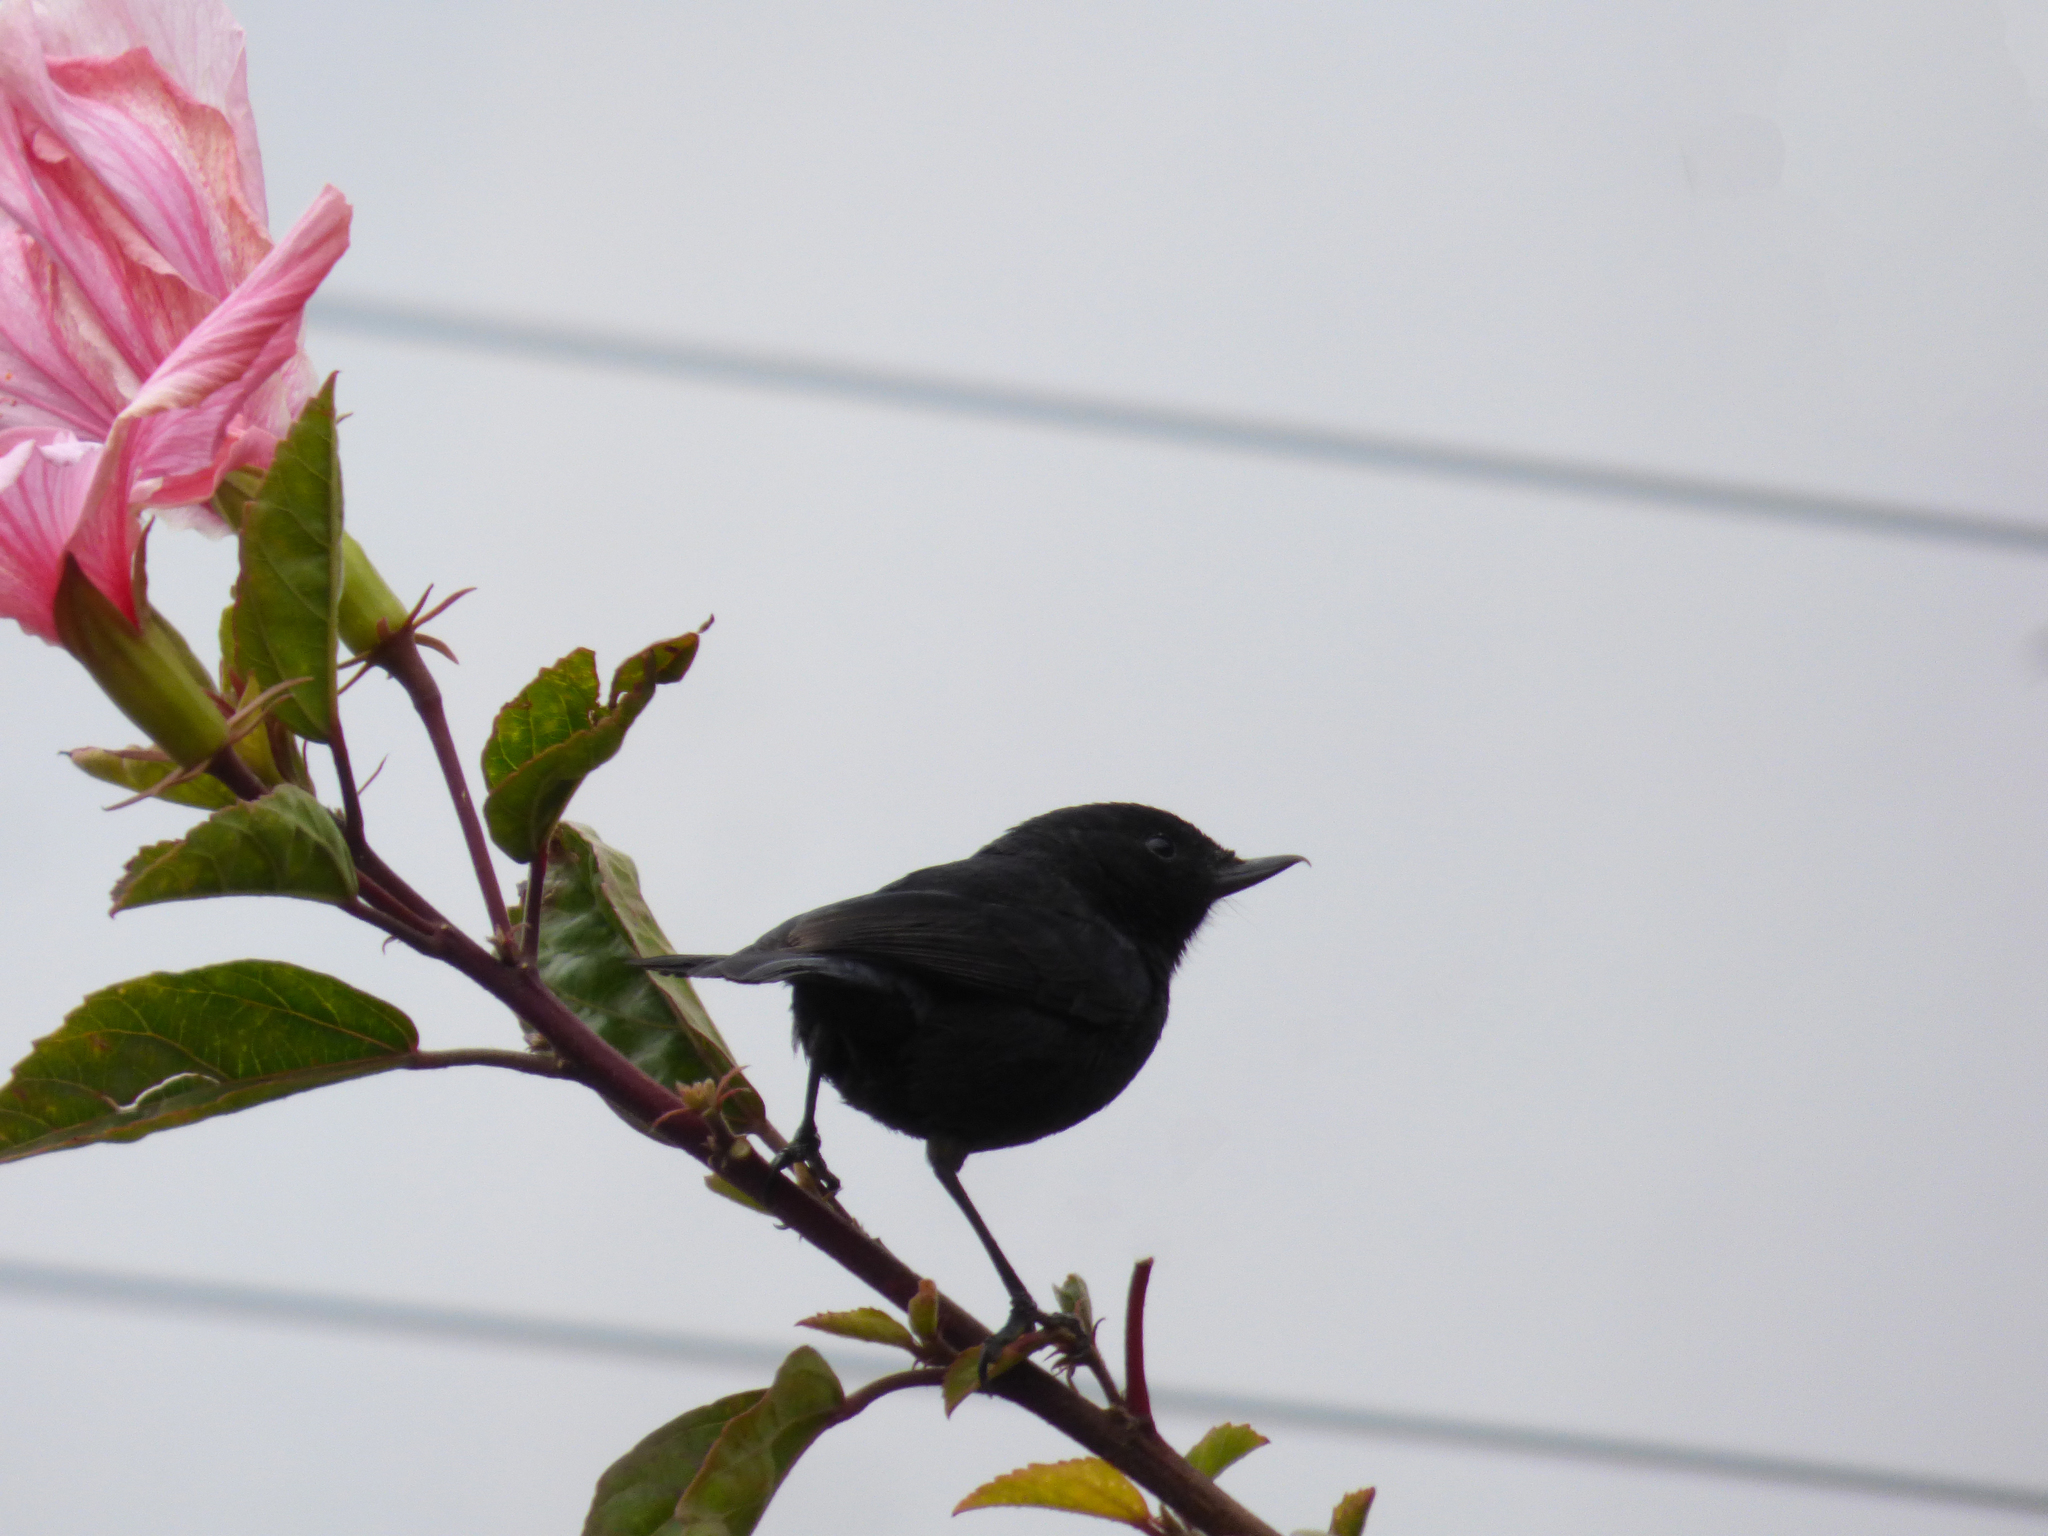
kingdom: Animalia
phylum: Chordata
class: Aves
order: Passeriformes
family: Thraupidae
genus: Diglossa
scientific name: Diglossa humeralis
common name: Black flowerpiercer
